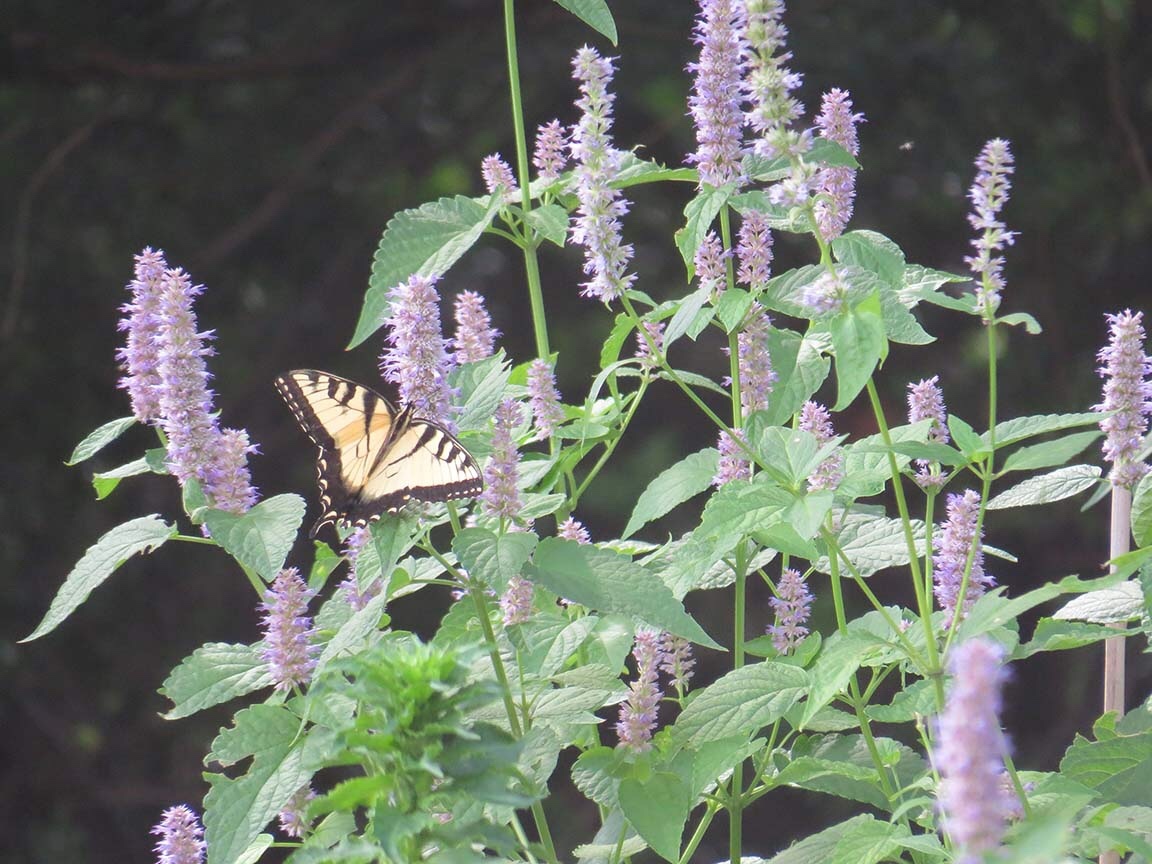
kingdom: Animalia
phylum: Arthropoda
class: Insecta
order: Lepidoptera
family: Papilionidae
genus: Papilio
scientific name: Papilio glaucus
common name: Tiger swallowtail
